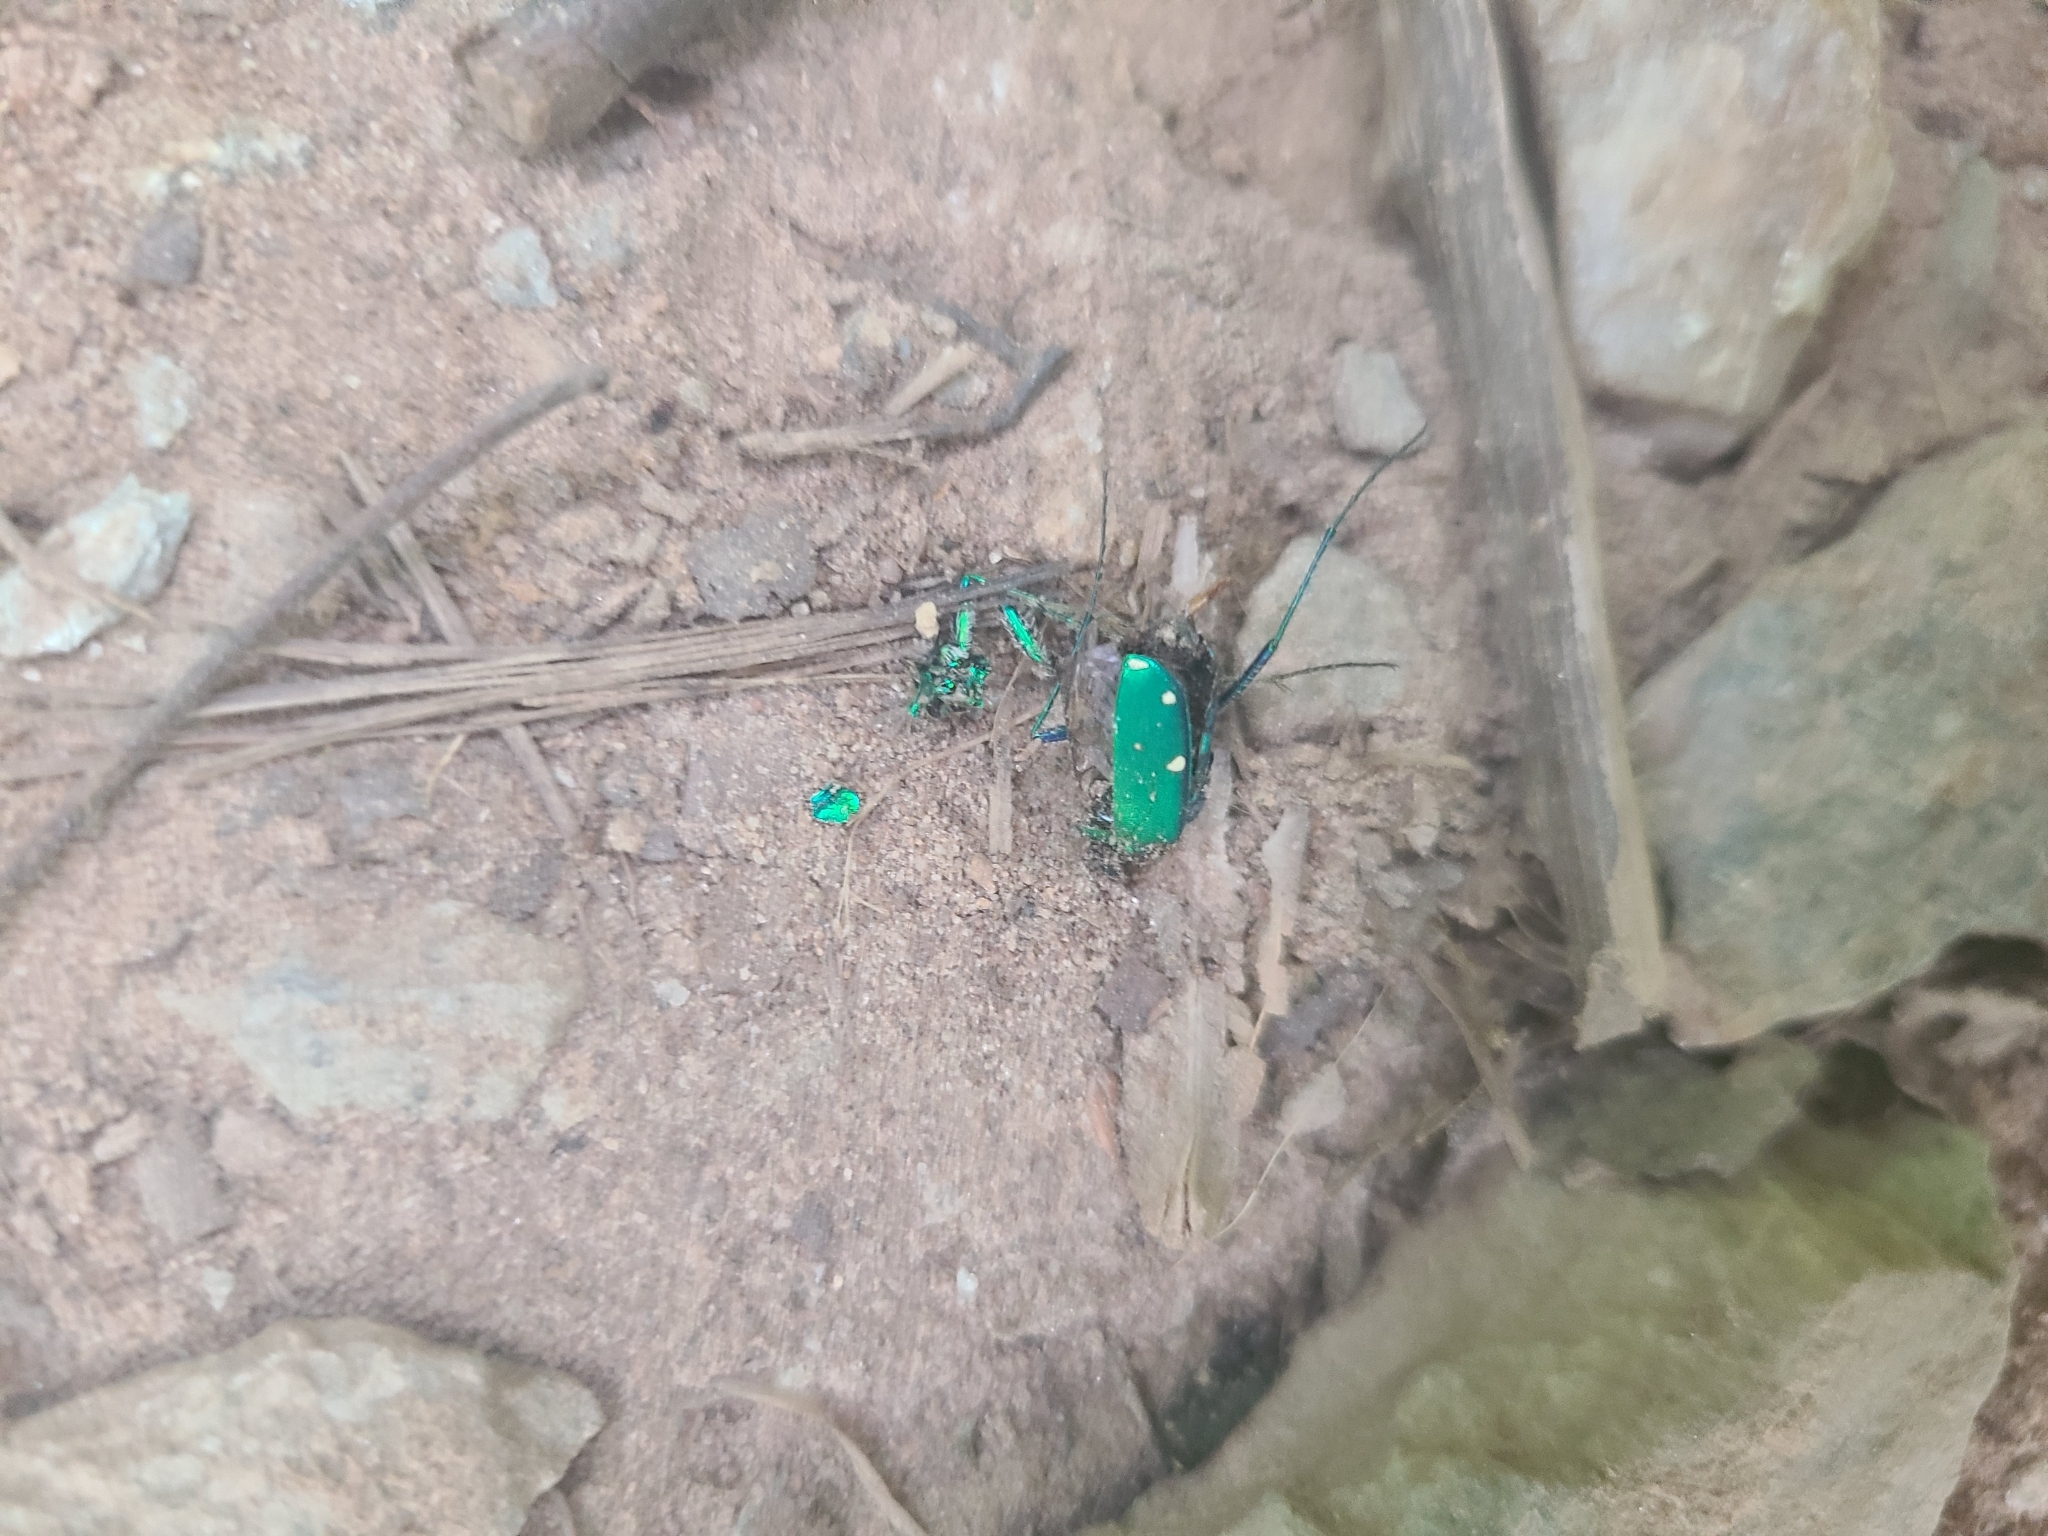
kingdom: Animalia
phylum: Arthropoda
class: Insecta
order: Coleoptera
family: Carabidae
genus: Cicindela
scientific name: Cicindela sexguttata
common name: Six-spotted tiger beetle
